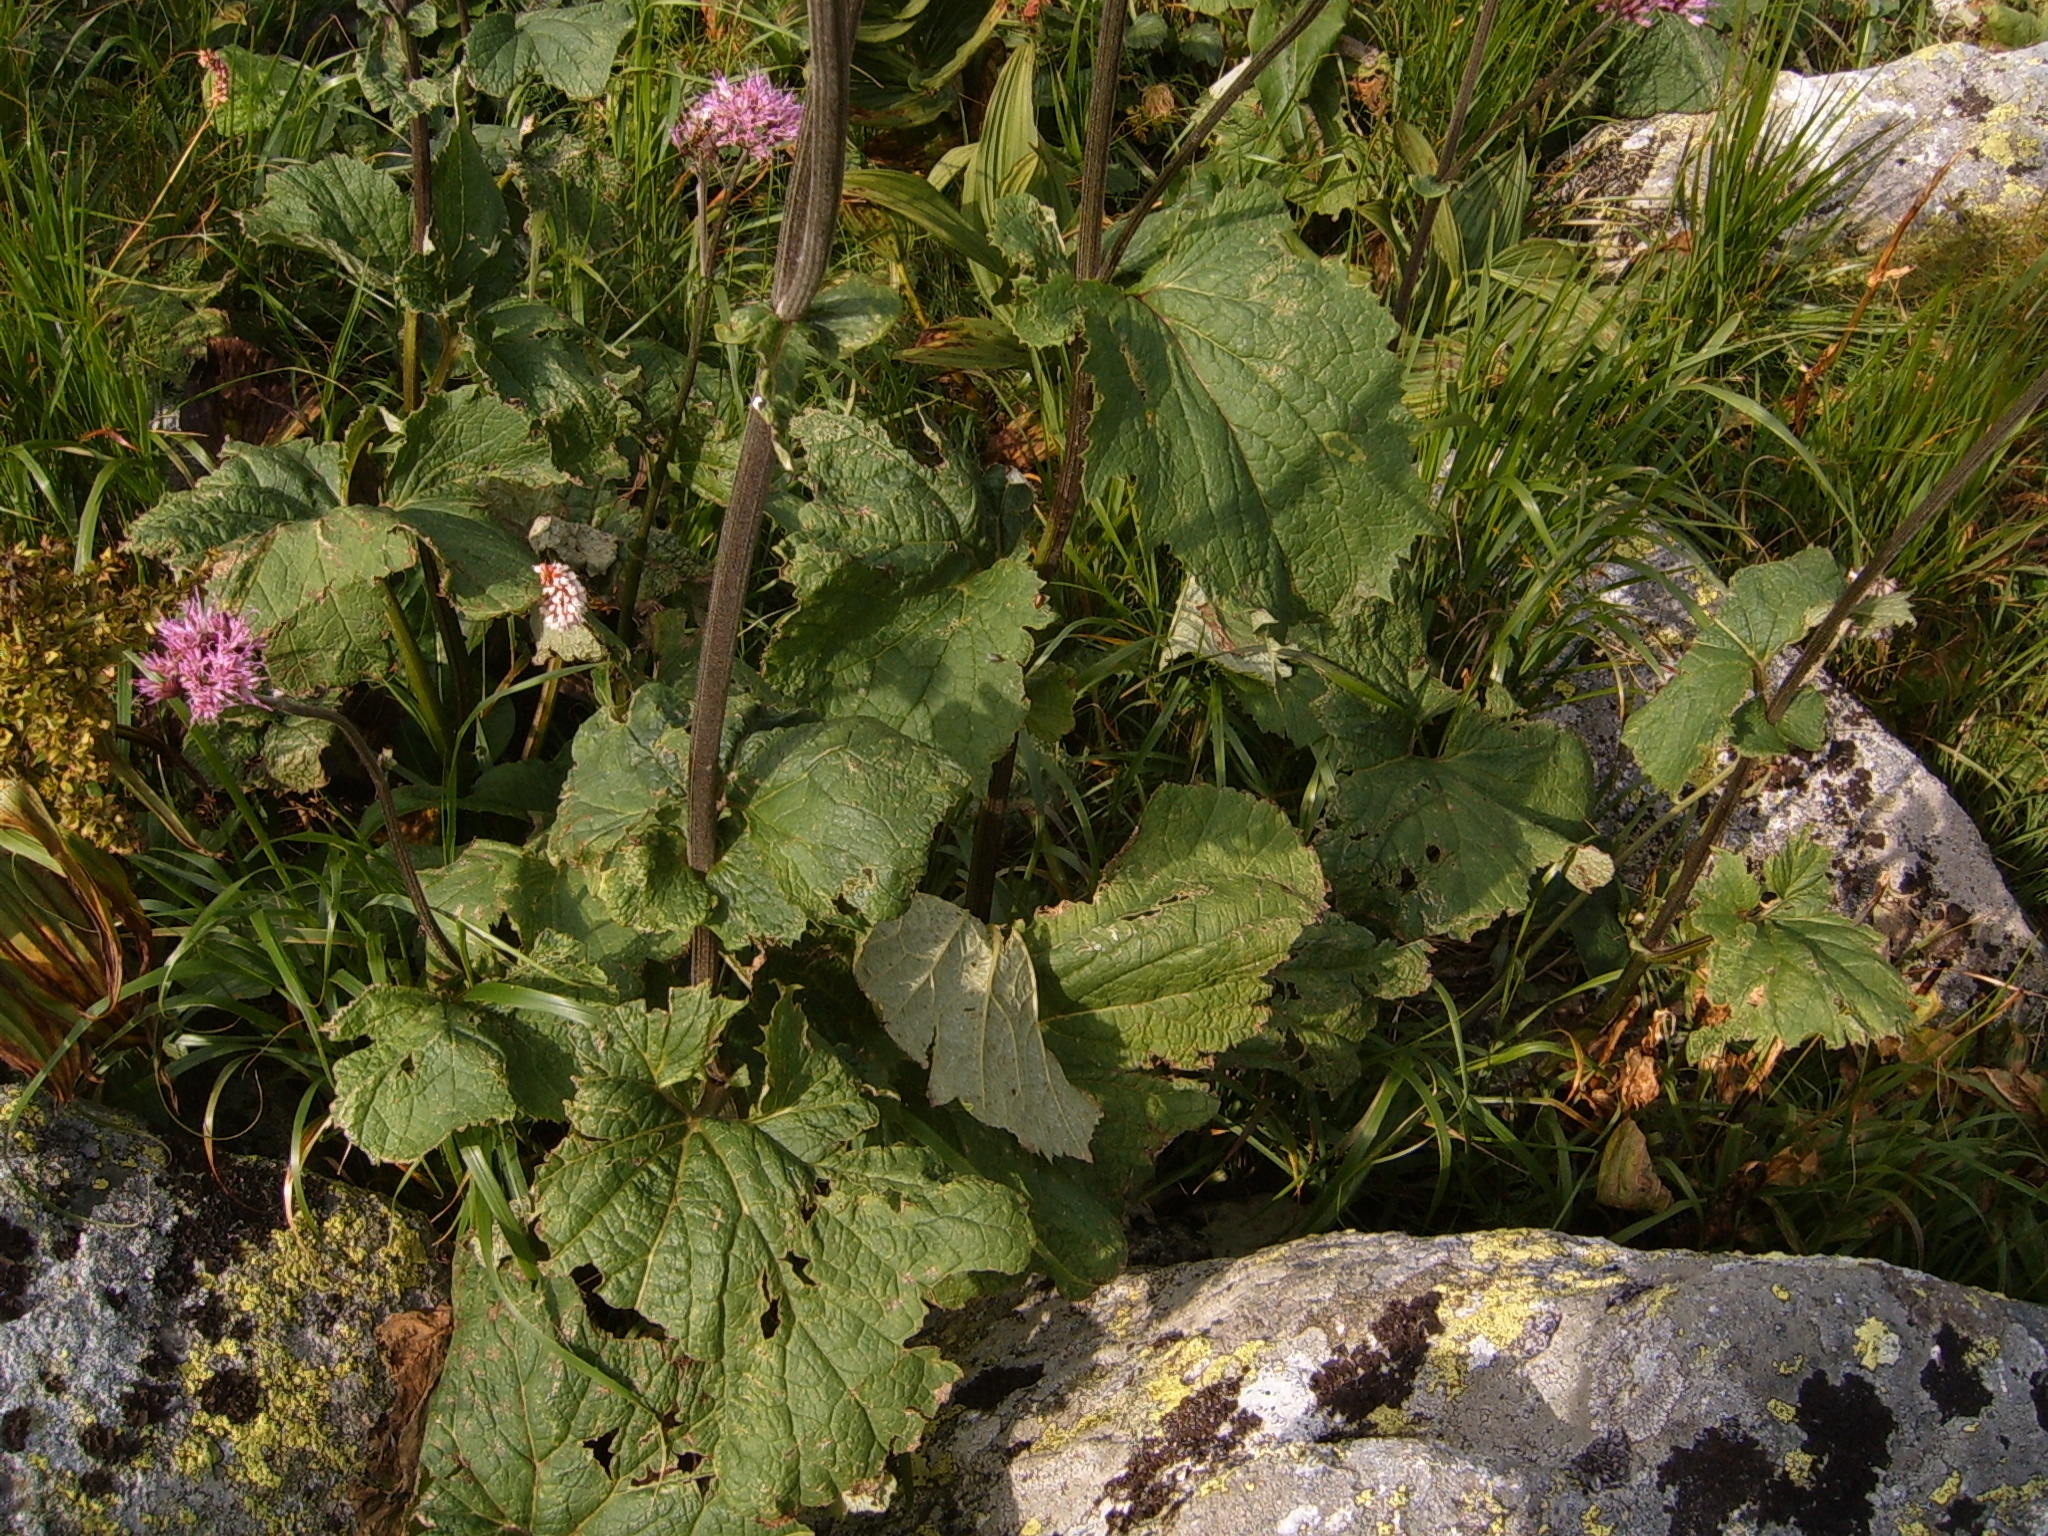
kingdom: Plantae
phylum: Tracheophyta
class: Magnoliopsida
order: Asterales
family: Asteraceae
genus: Adenostyles
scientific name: Adenostyles alliariae
